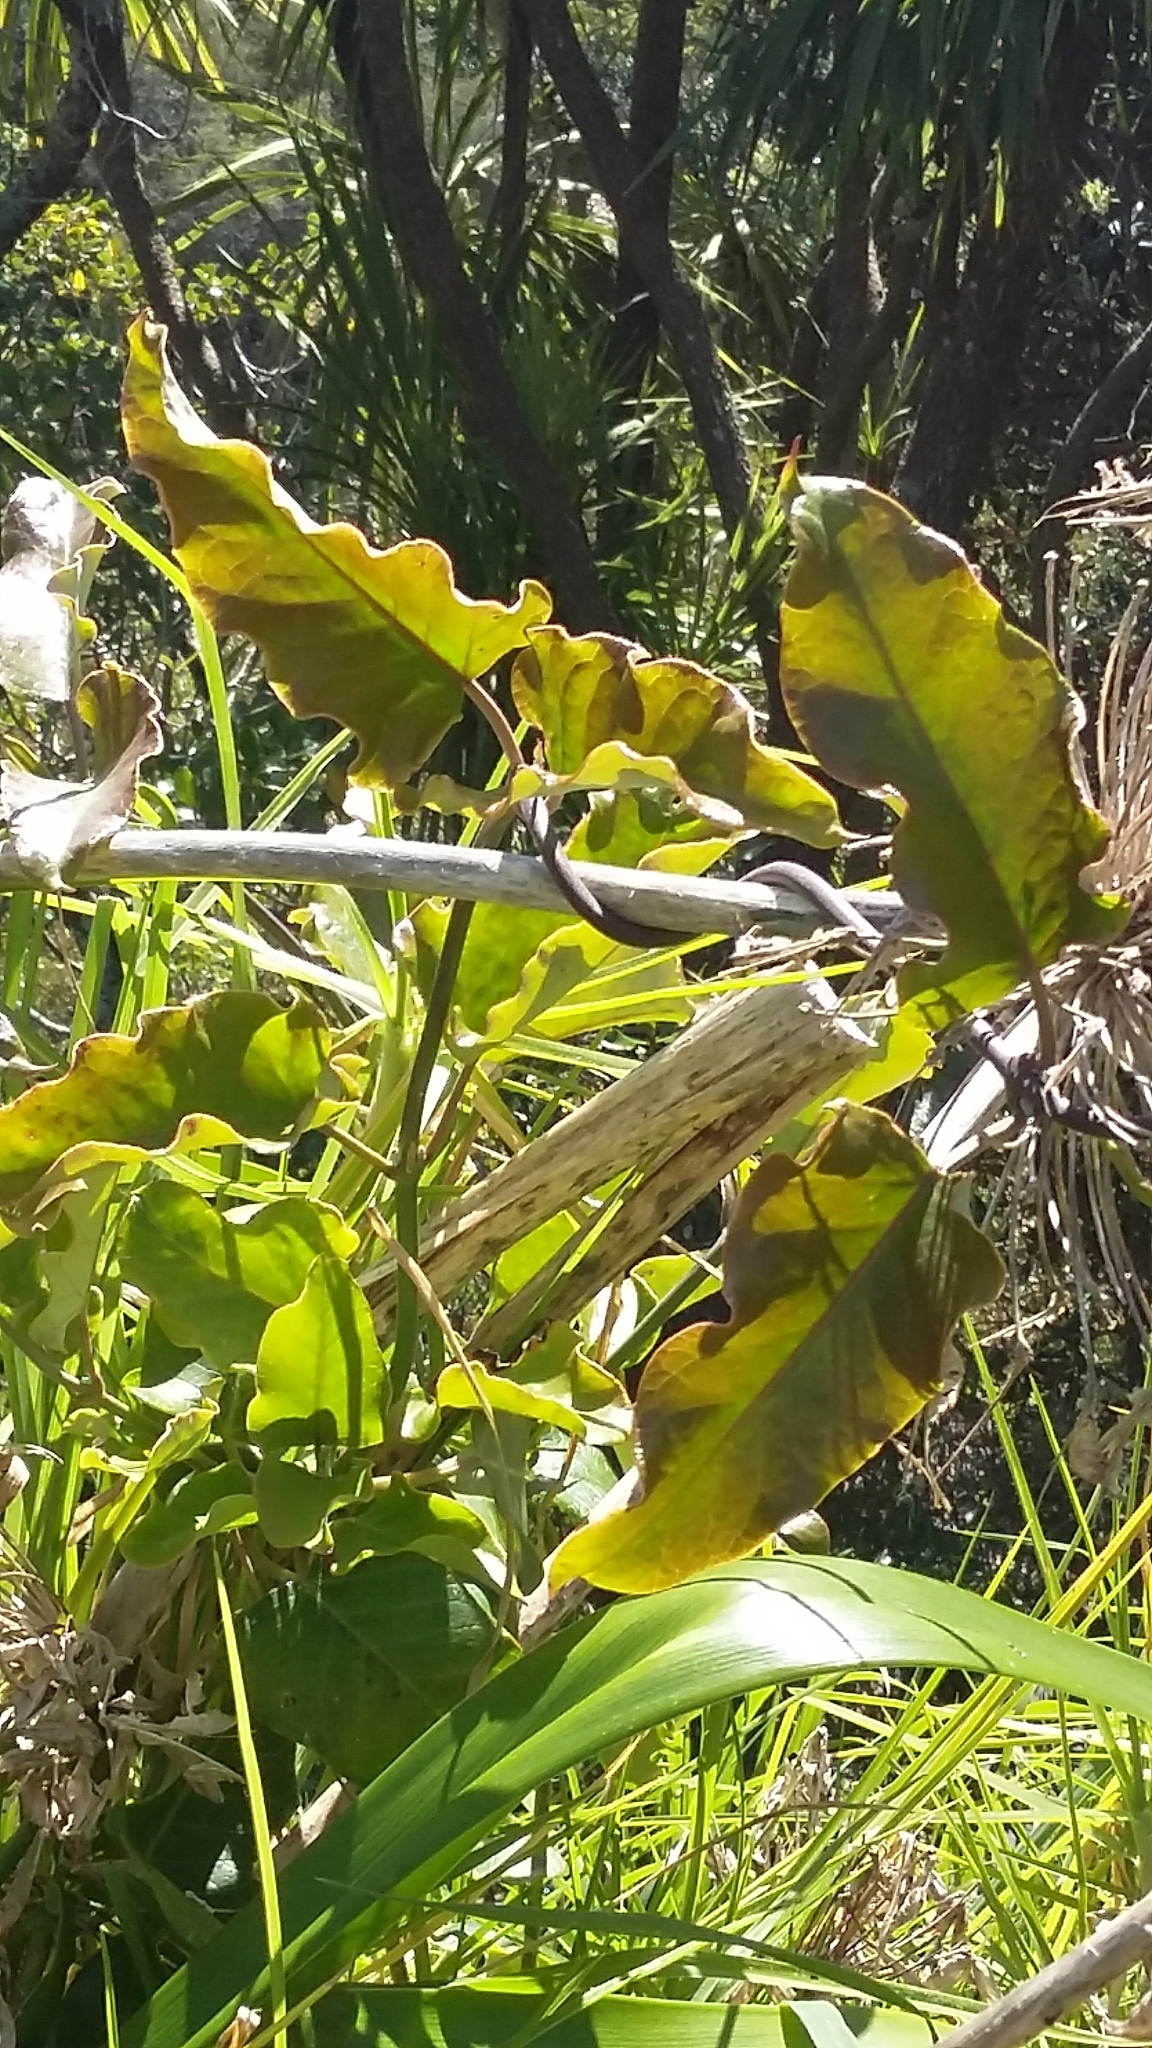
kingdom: Plantae
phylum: Tracheophyta
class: Magnoliopsida
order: Gentianales
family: Apocynaceae
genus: Araujia
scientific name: Araujia sericifera
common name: White bladderflower
